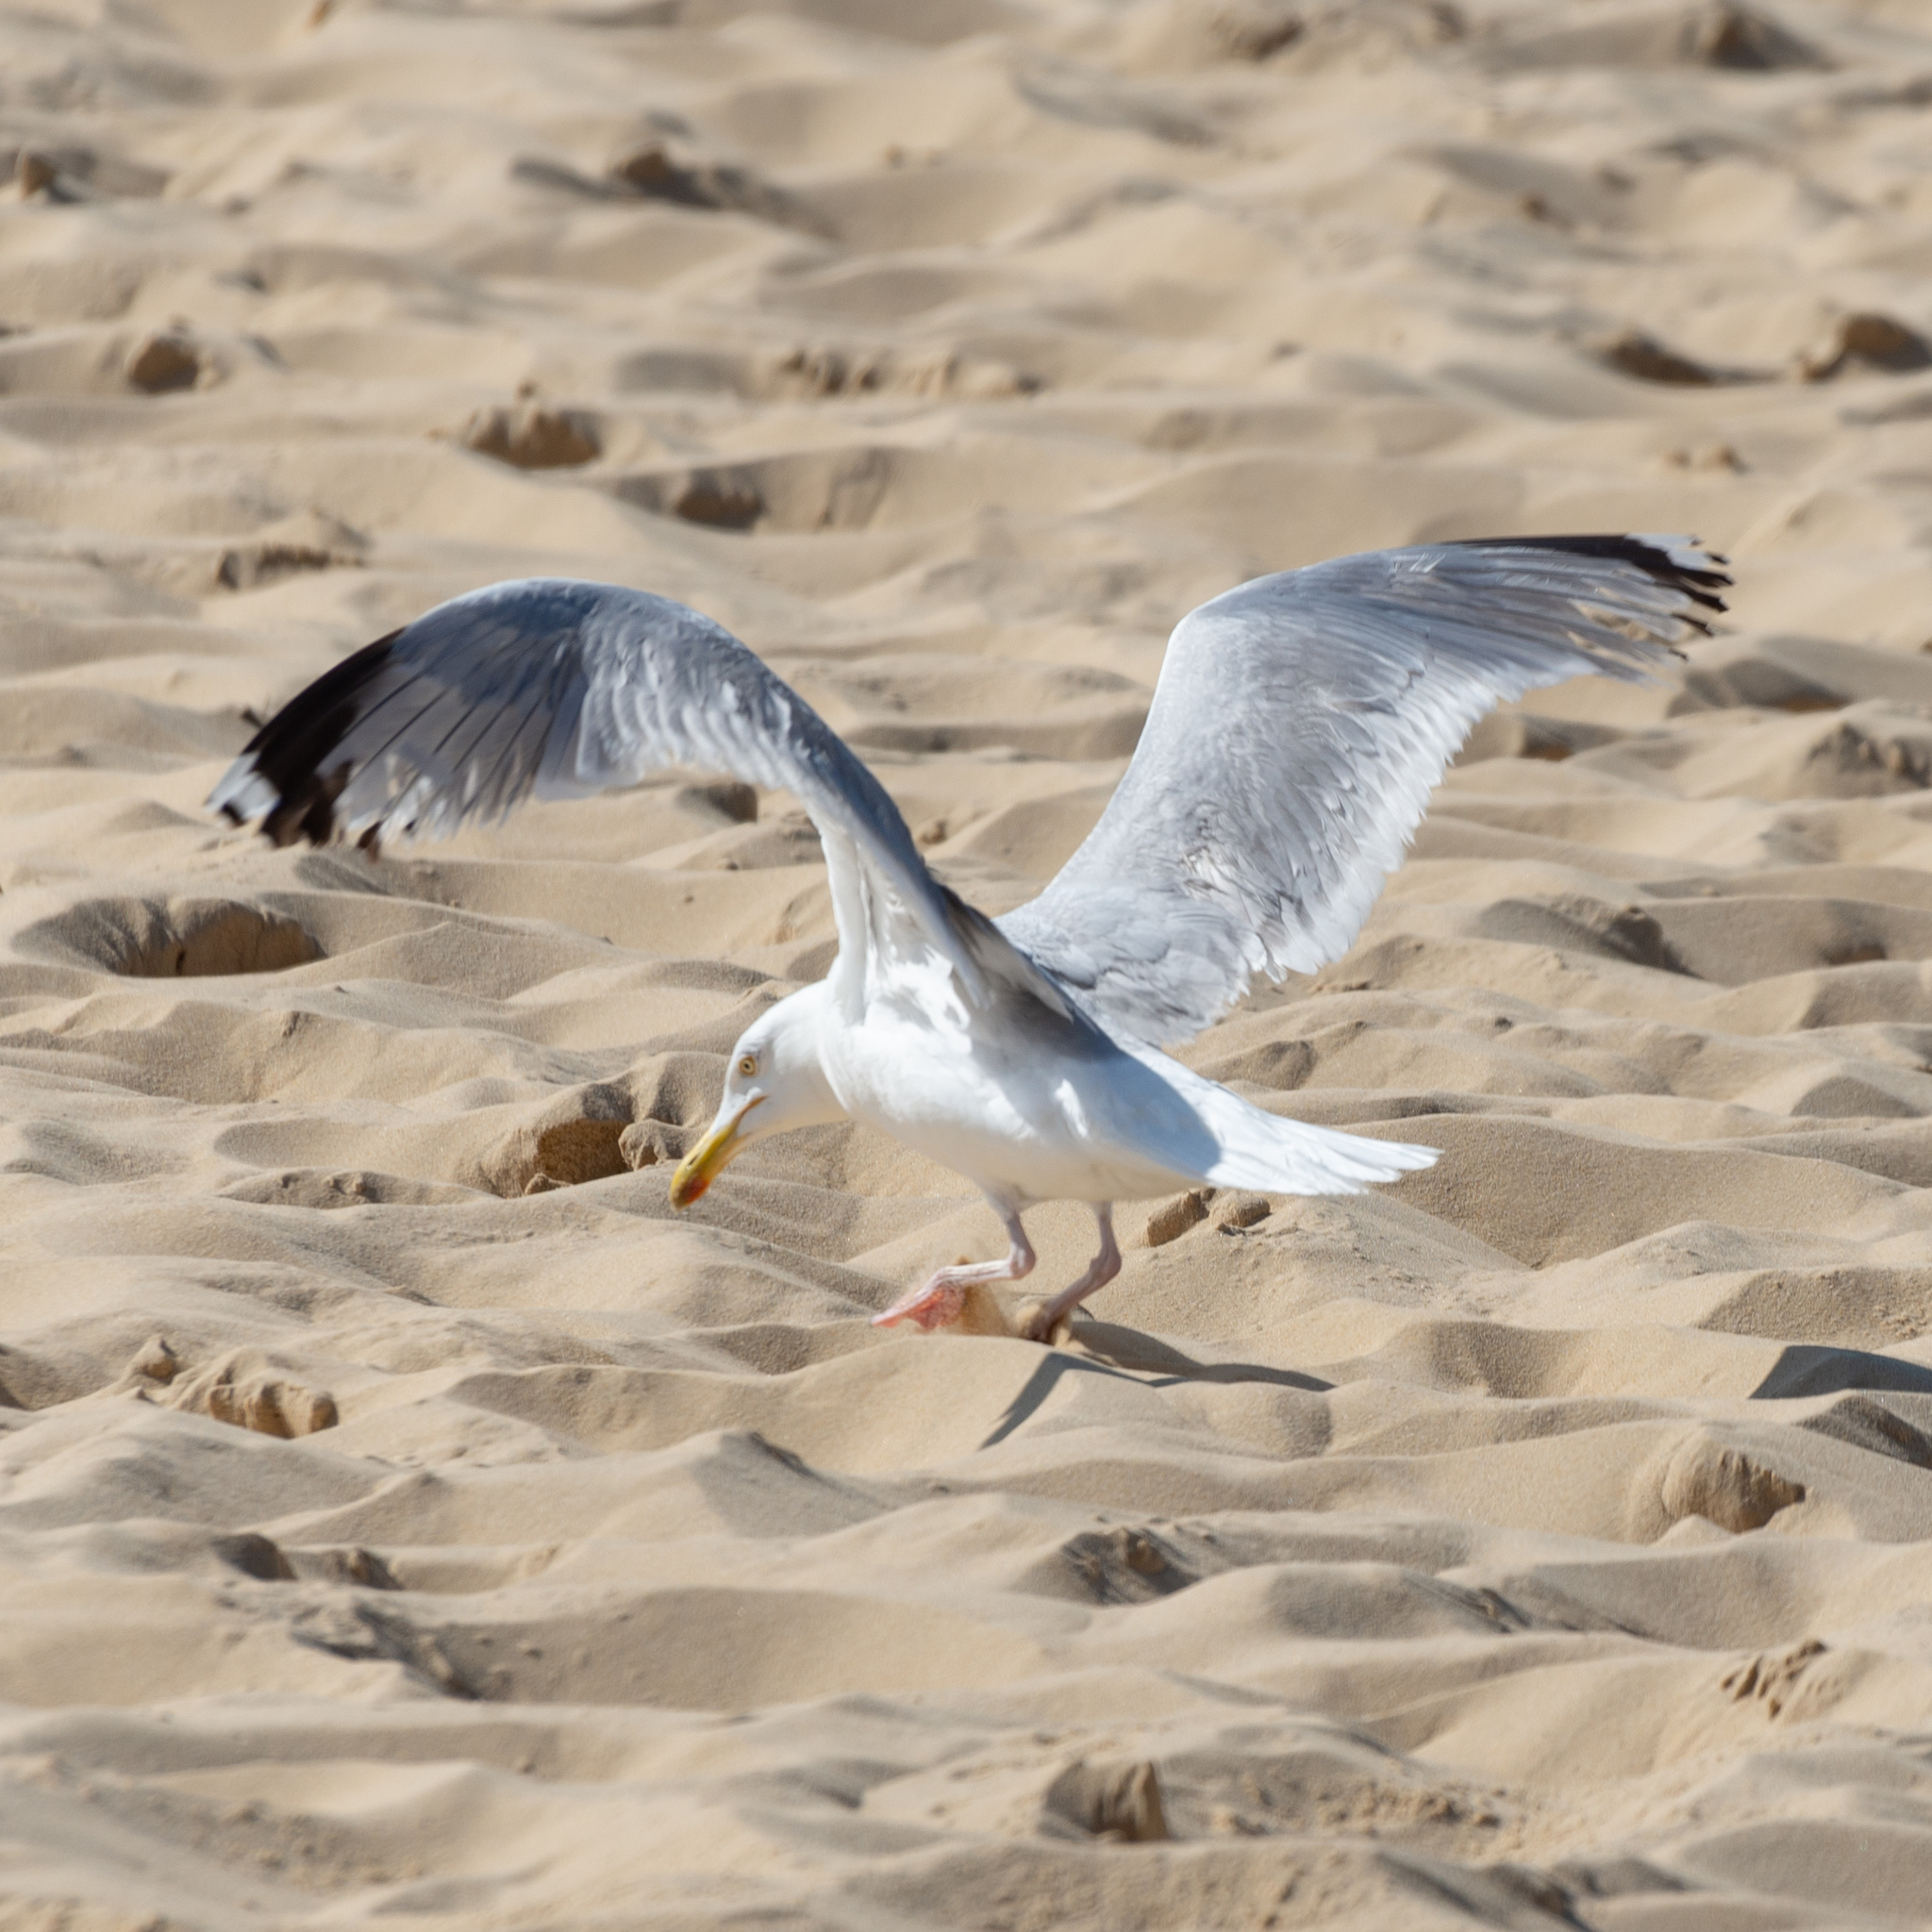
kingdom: Animalia
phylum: Chordata
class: Aves
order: Charadriiformes
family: Laridae
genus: Larus
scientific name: Larus argentatus
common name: Herring gull
